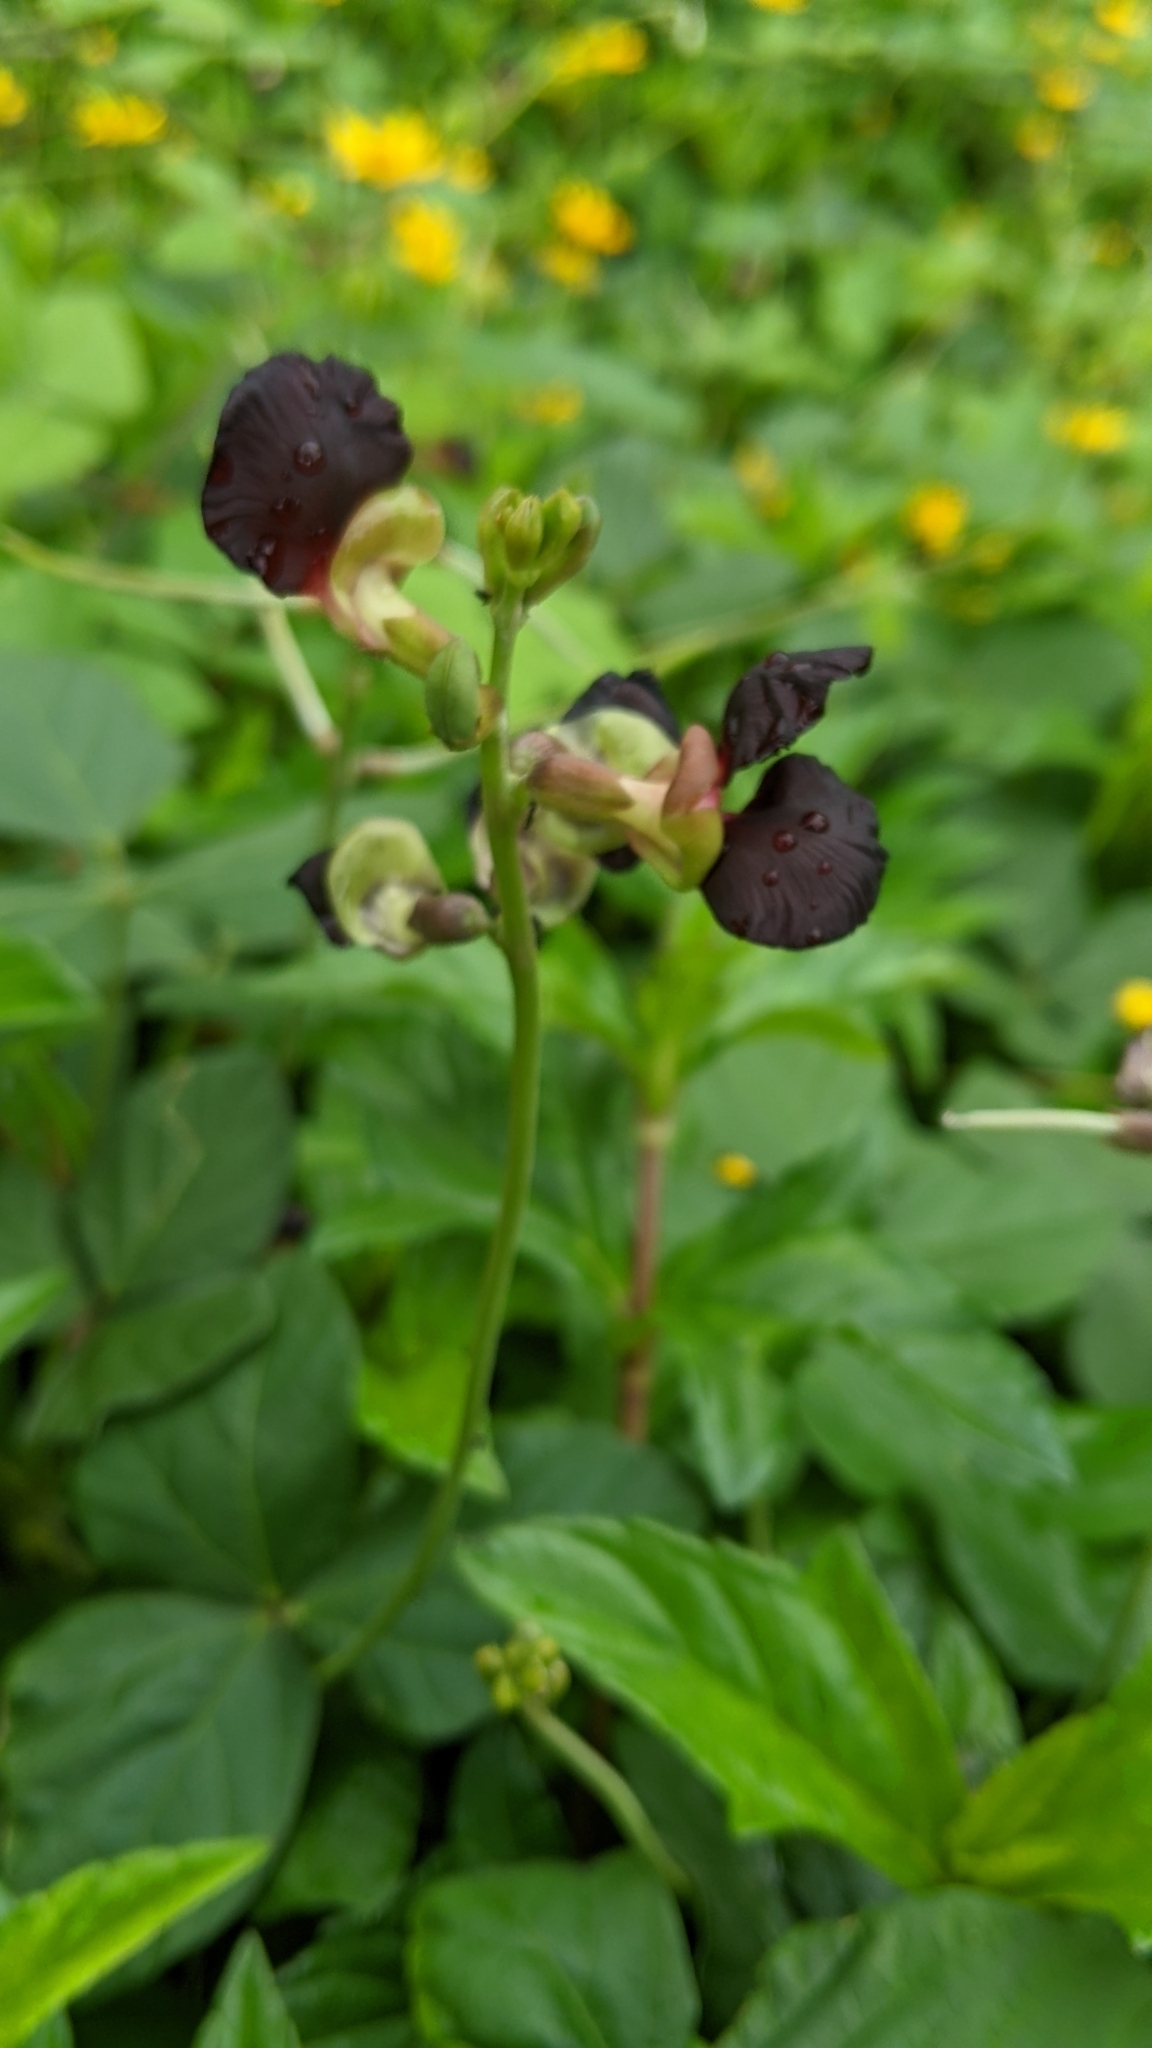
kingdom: Plantae
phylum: Tracheophyta
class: Magnoliopsida
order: Fabales
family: Fabaceae
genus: Macroptilium
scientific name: Macroptilium atropurpureum
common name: Purple bushbean
